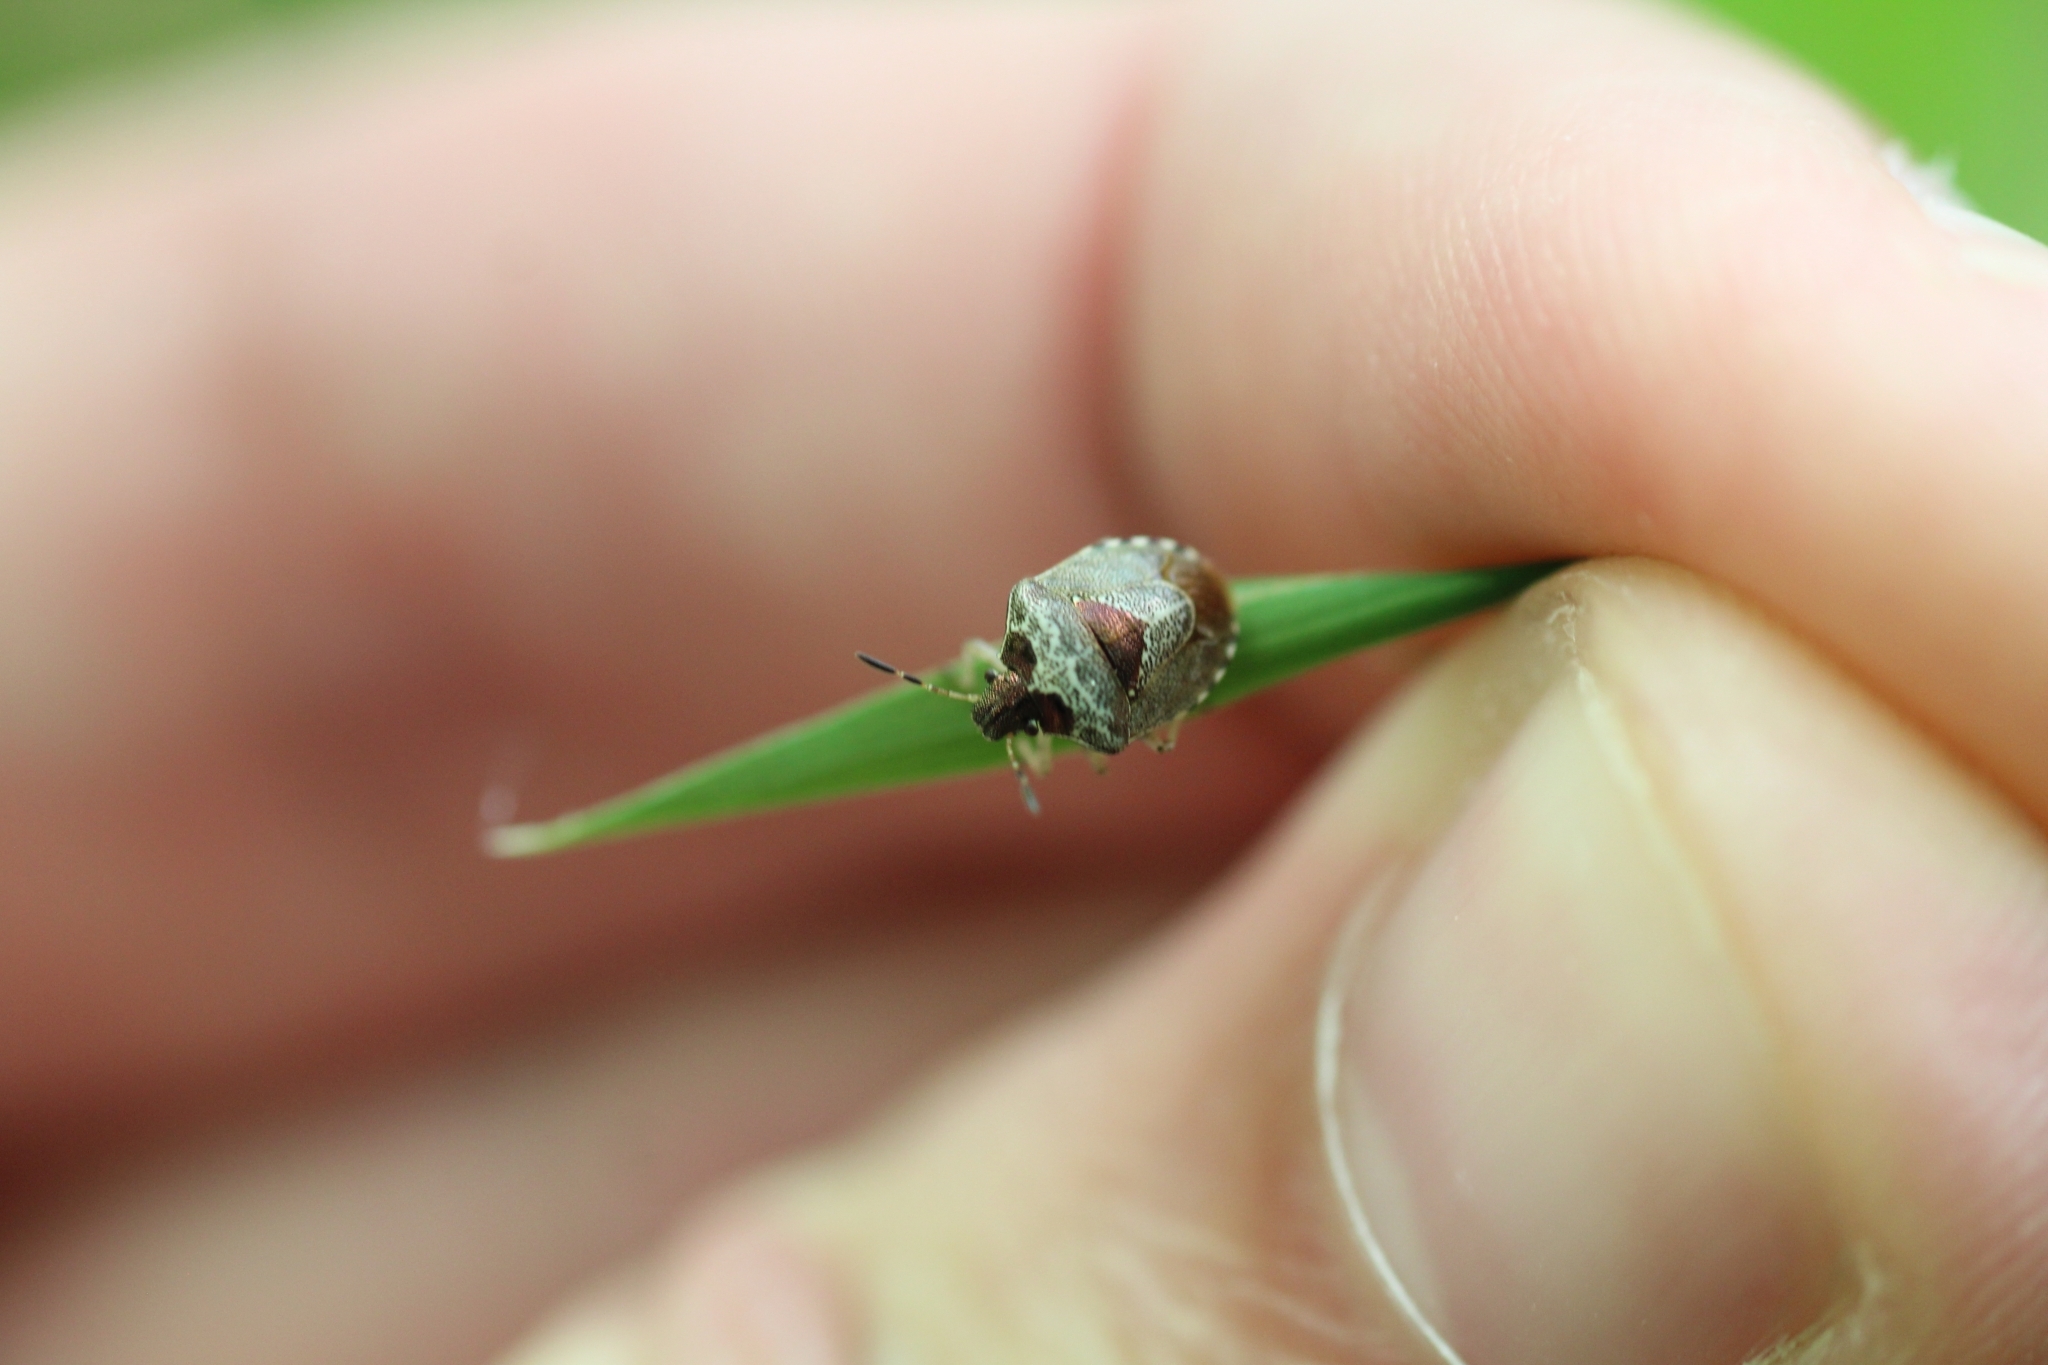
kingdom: Animalia
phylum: Arthropoda
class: Insecta
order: Hemiptera
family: Pentatomidae
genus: Eysarcoris
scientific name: Eysarcoris venustissimus
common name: Woundwort shieldbug
